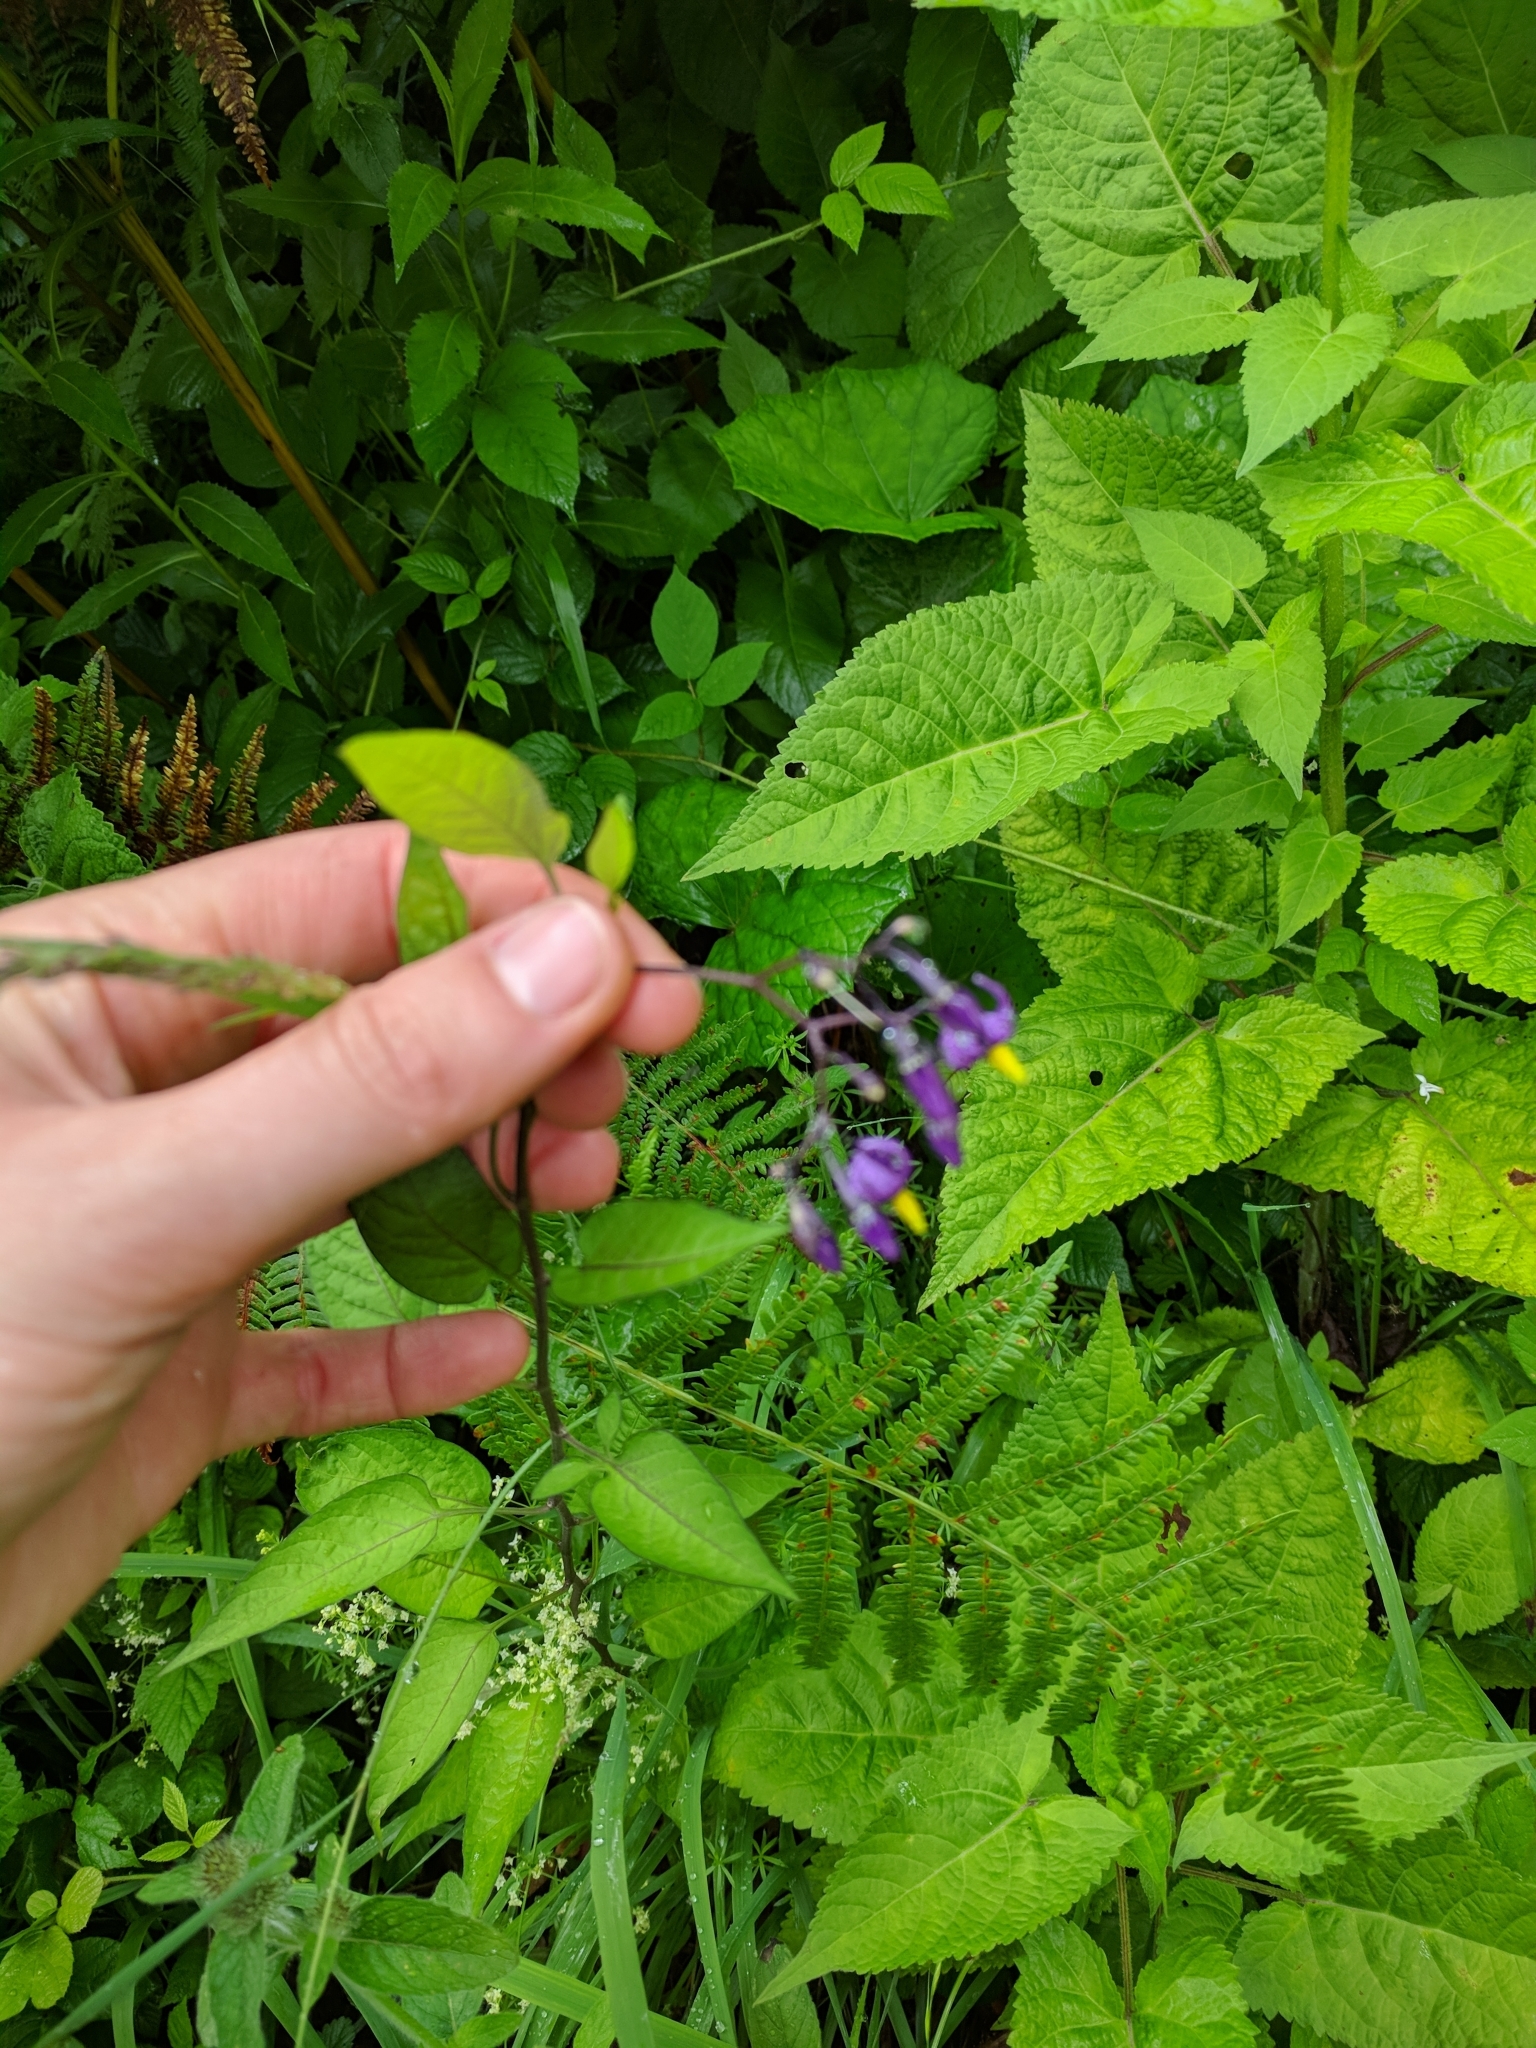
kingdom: Plantae
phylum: Tracheophyta
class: Magnoliopsida
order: Solanales
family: Solanaceae
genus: Solanum
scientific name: Solanum dulcamara
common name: Climbing nightshade
